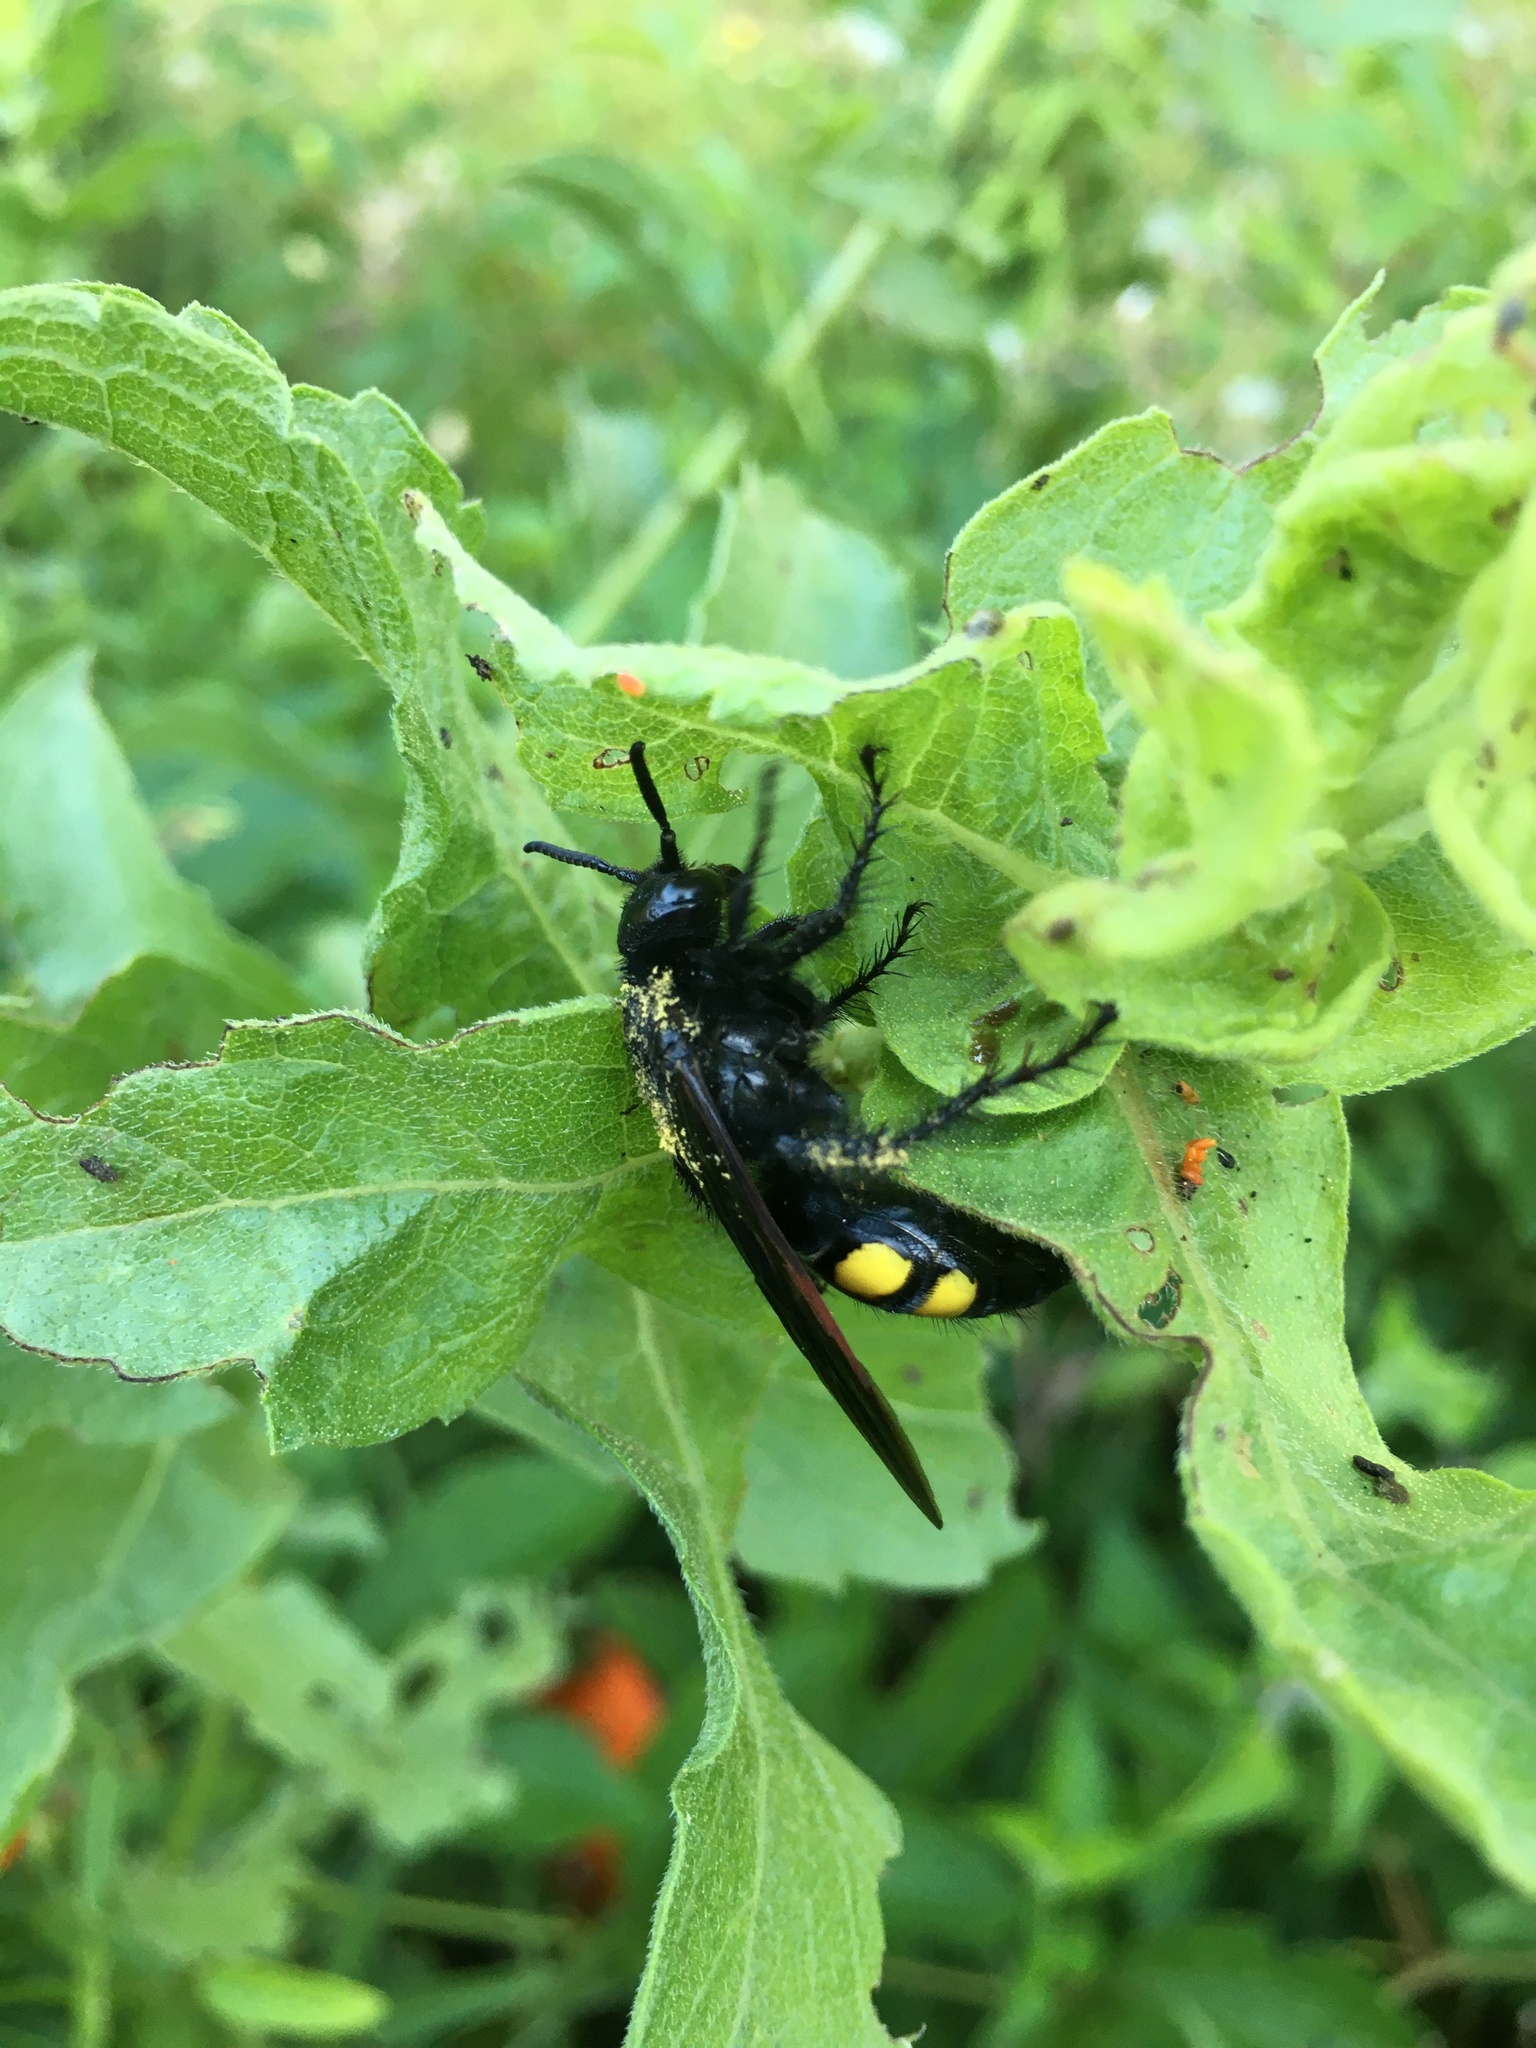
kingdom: Animalia
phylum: Arthropoda
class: Insecta
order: Hymenoptera
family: Scoliidae
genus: Pygodasis
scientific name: Pygodasis
